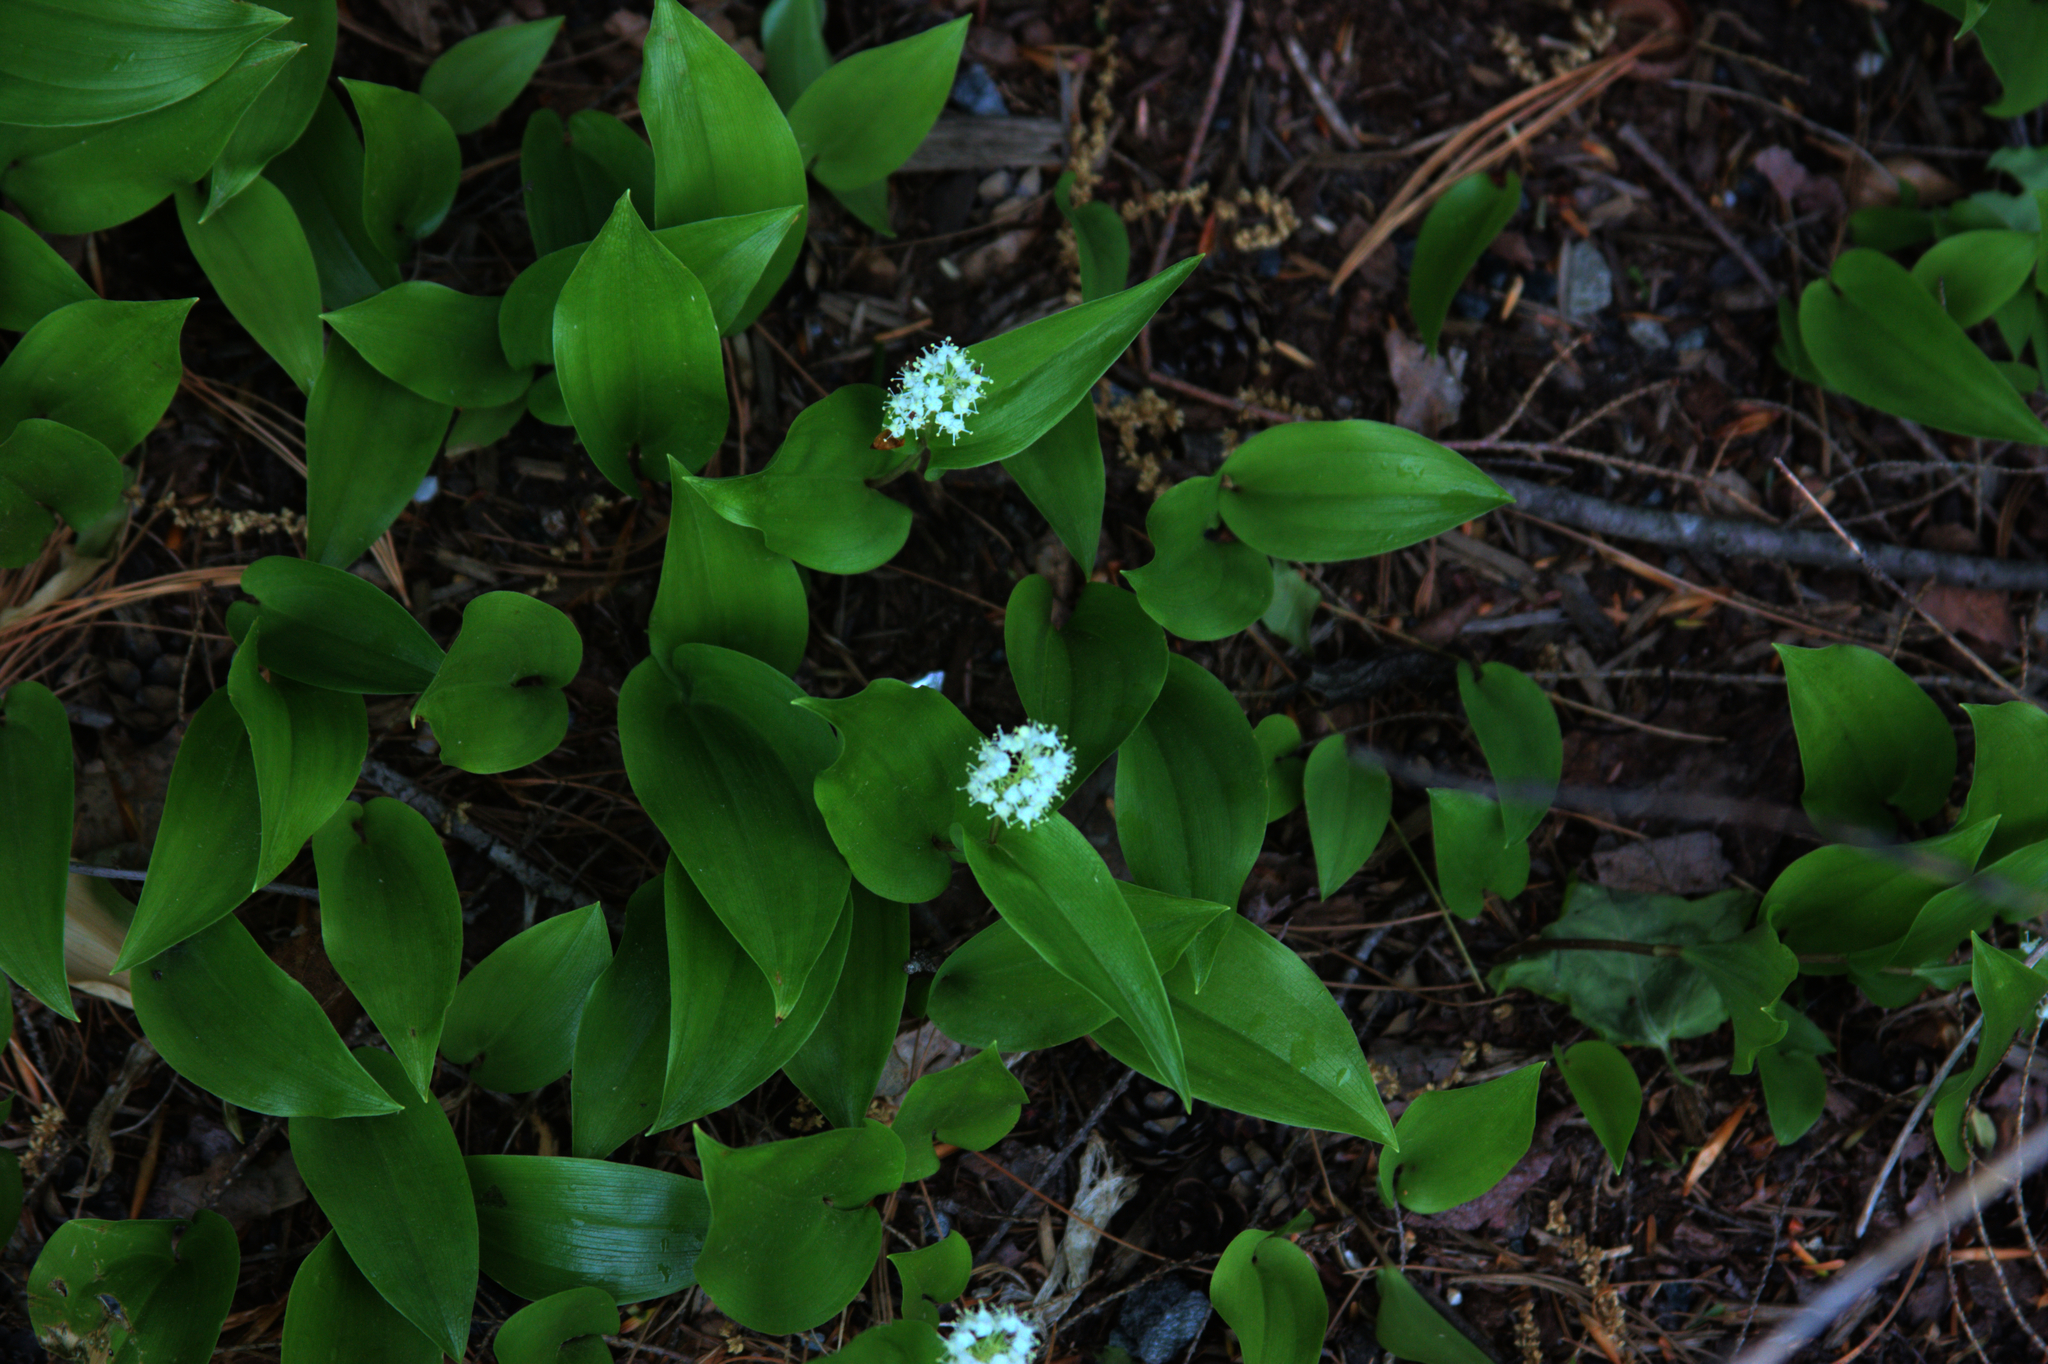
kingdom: Plantae
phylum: Tracheophyta
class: Liliopsida
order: Asparagales
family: Asparagaceae
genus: Maianthemum
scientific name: Maianthemum canadense
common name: False lily-of-the-valley
